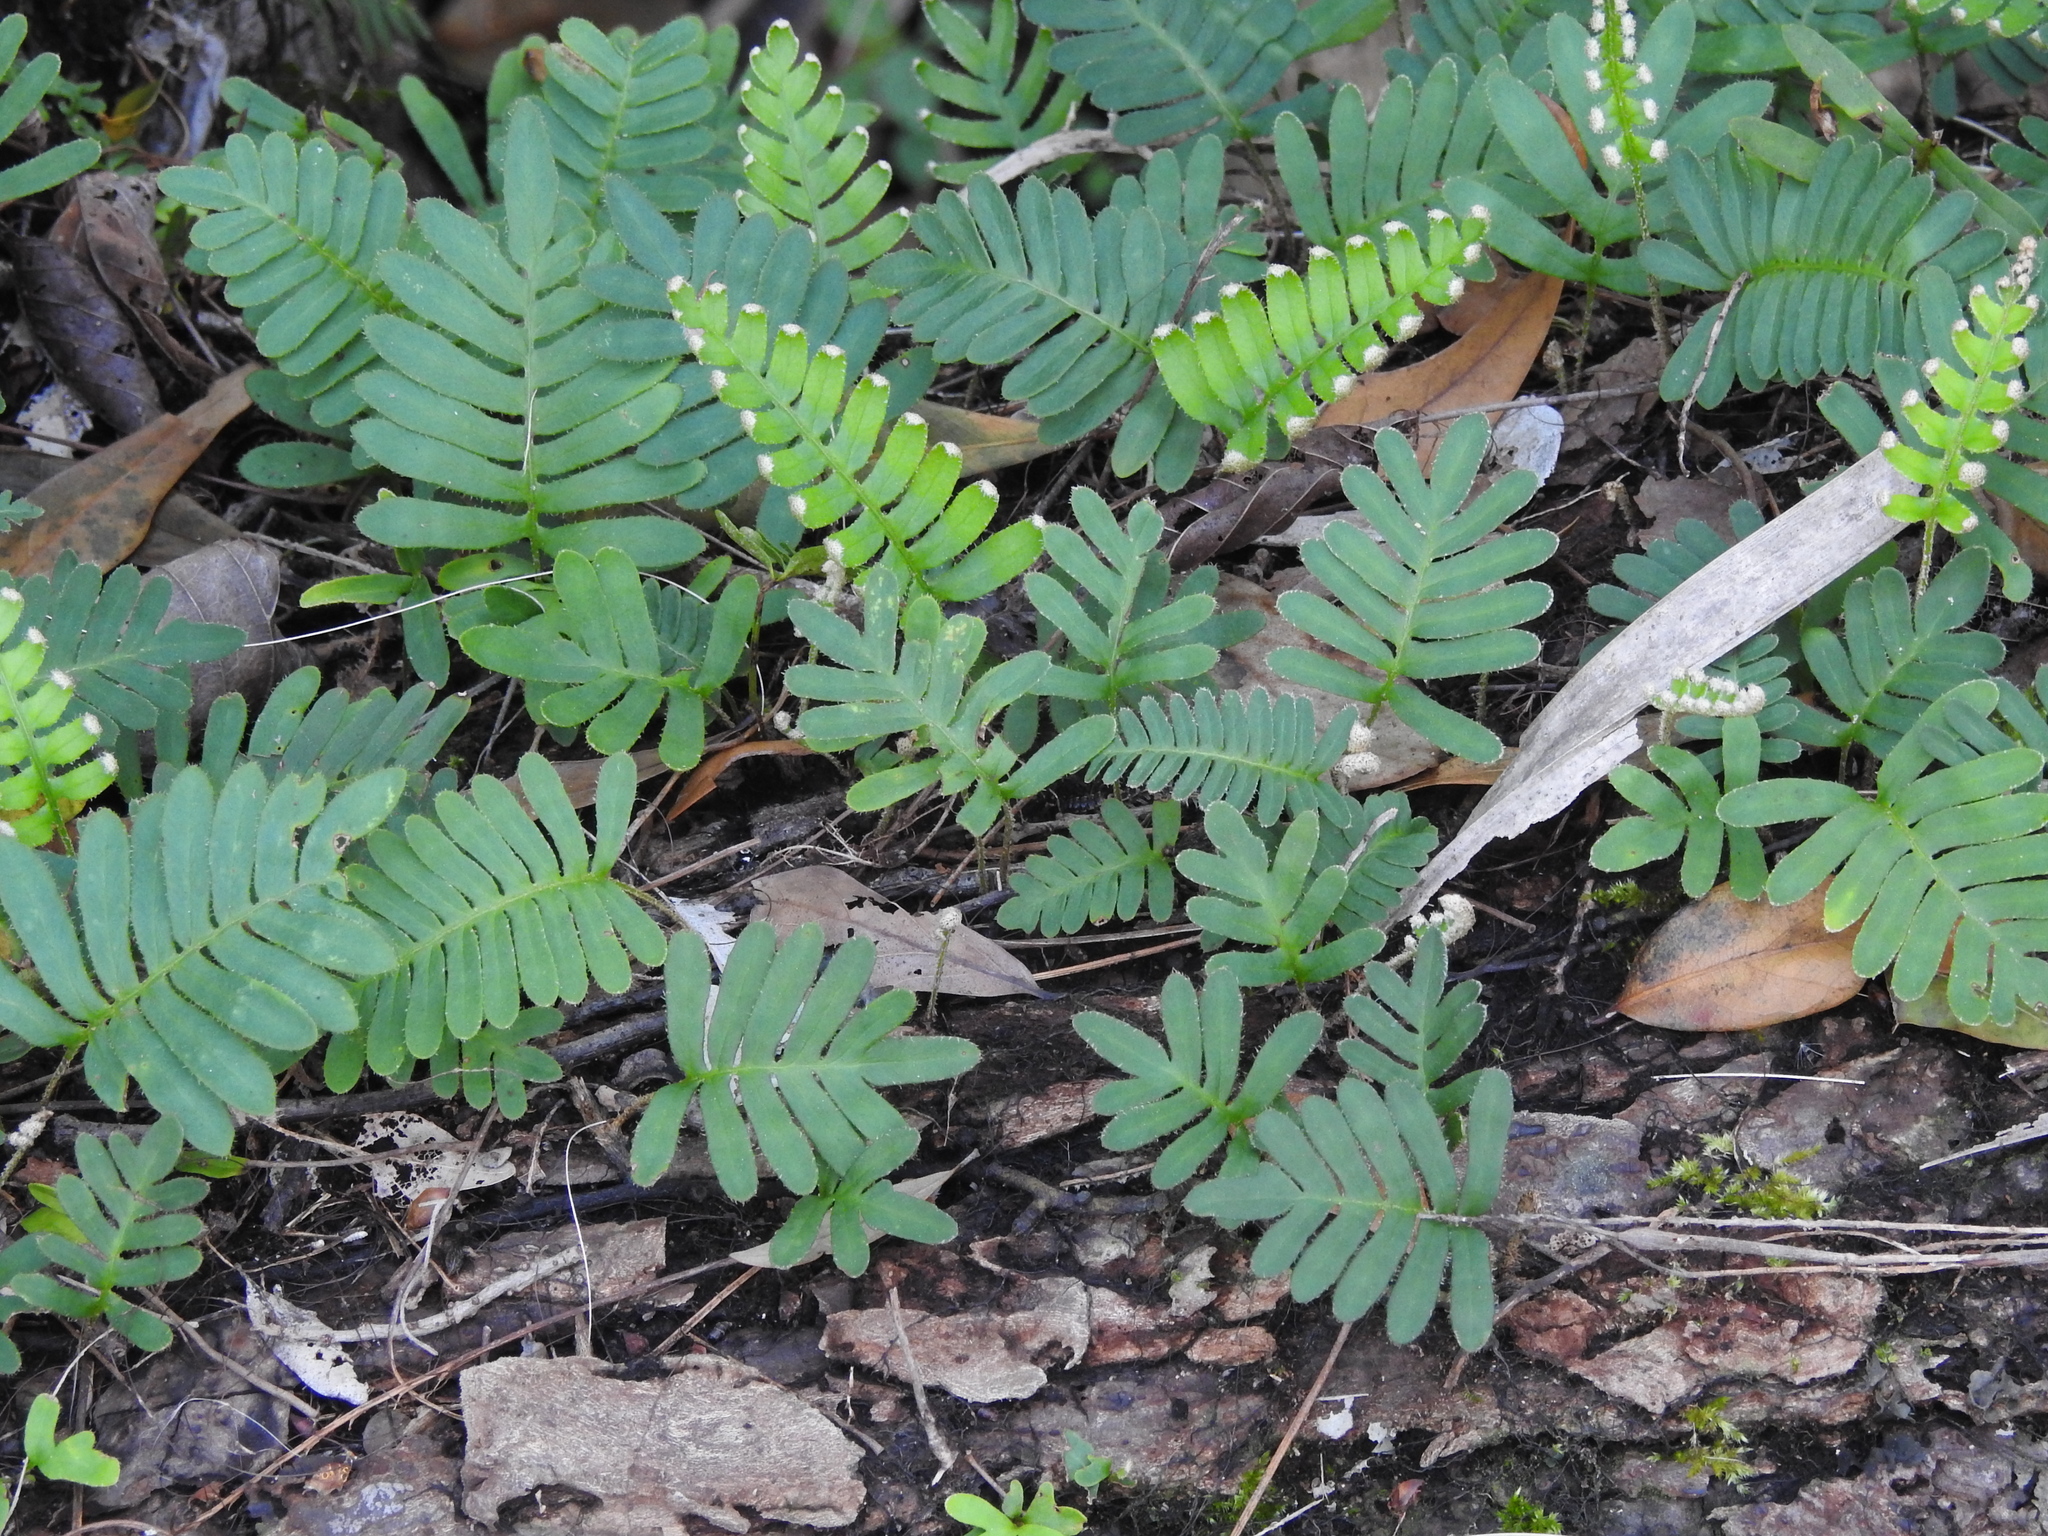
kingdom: Plantae
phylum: Tracheophyta
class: Polypodiopsida
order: Polypodiales
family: Polypodiaceae
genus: Pleopeltis
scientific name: Pleopeltis michauxiana
